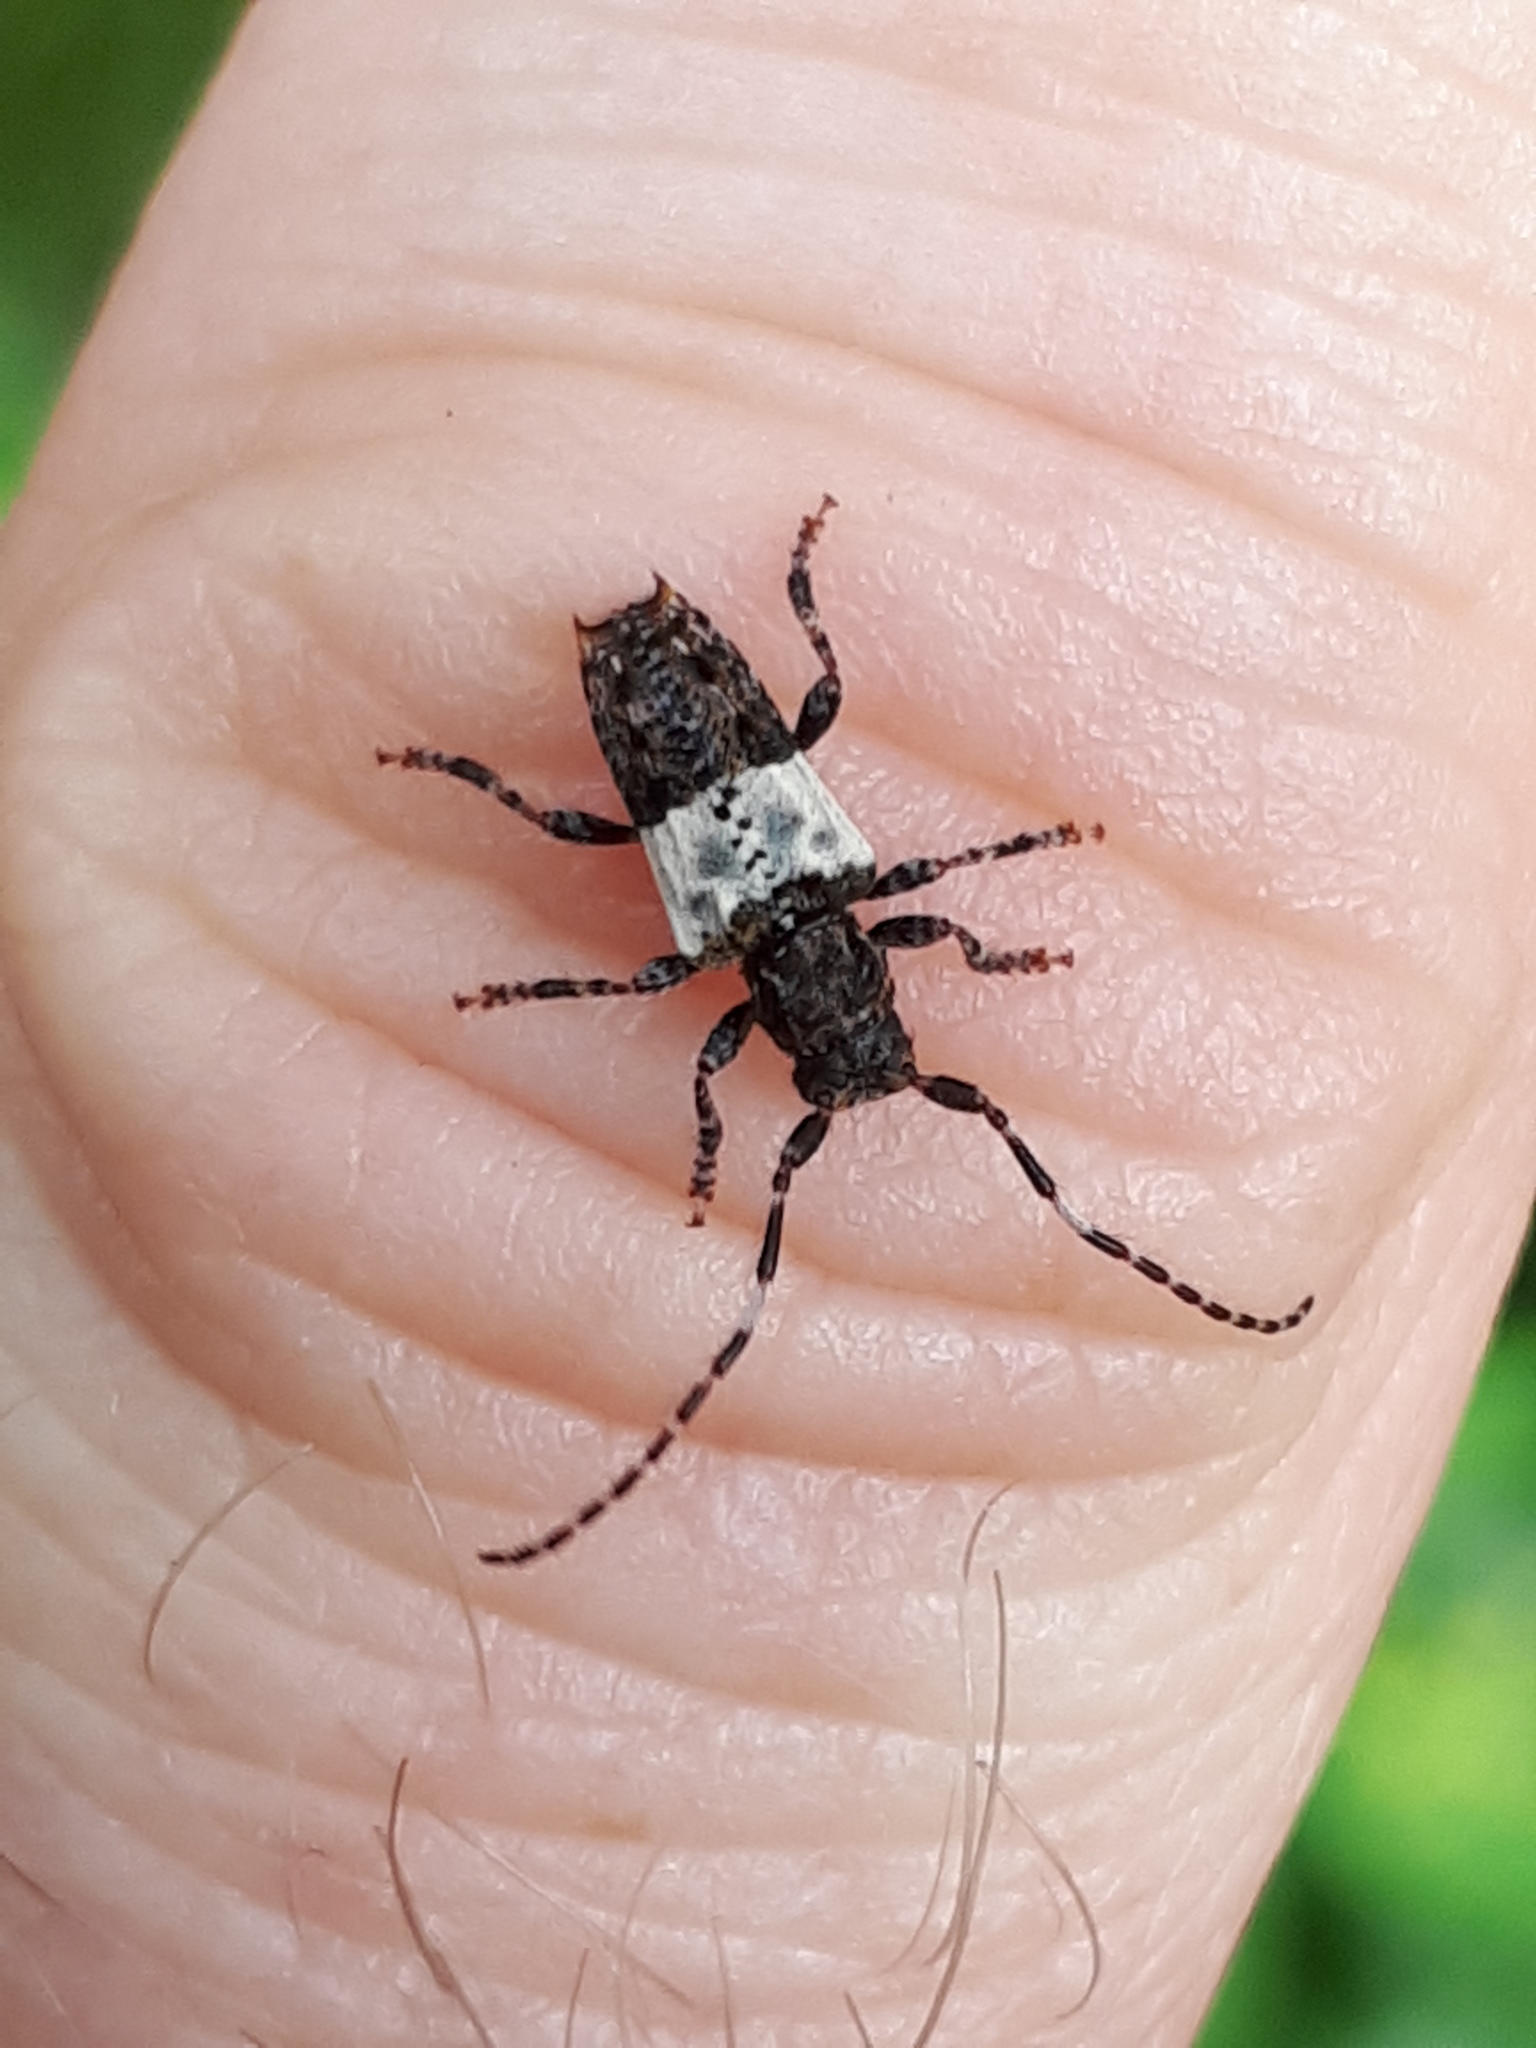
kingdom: Animalia
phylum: Arthropoda
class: Insecta
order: Coleoptera
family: Cerambycidae
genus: Pogonocherus
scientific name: Pogonocherus hispidulus
